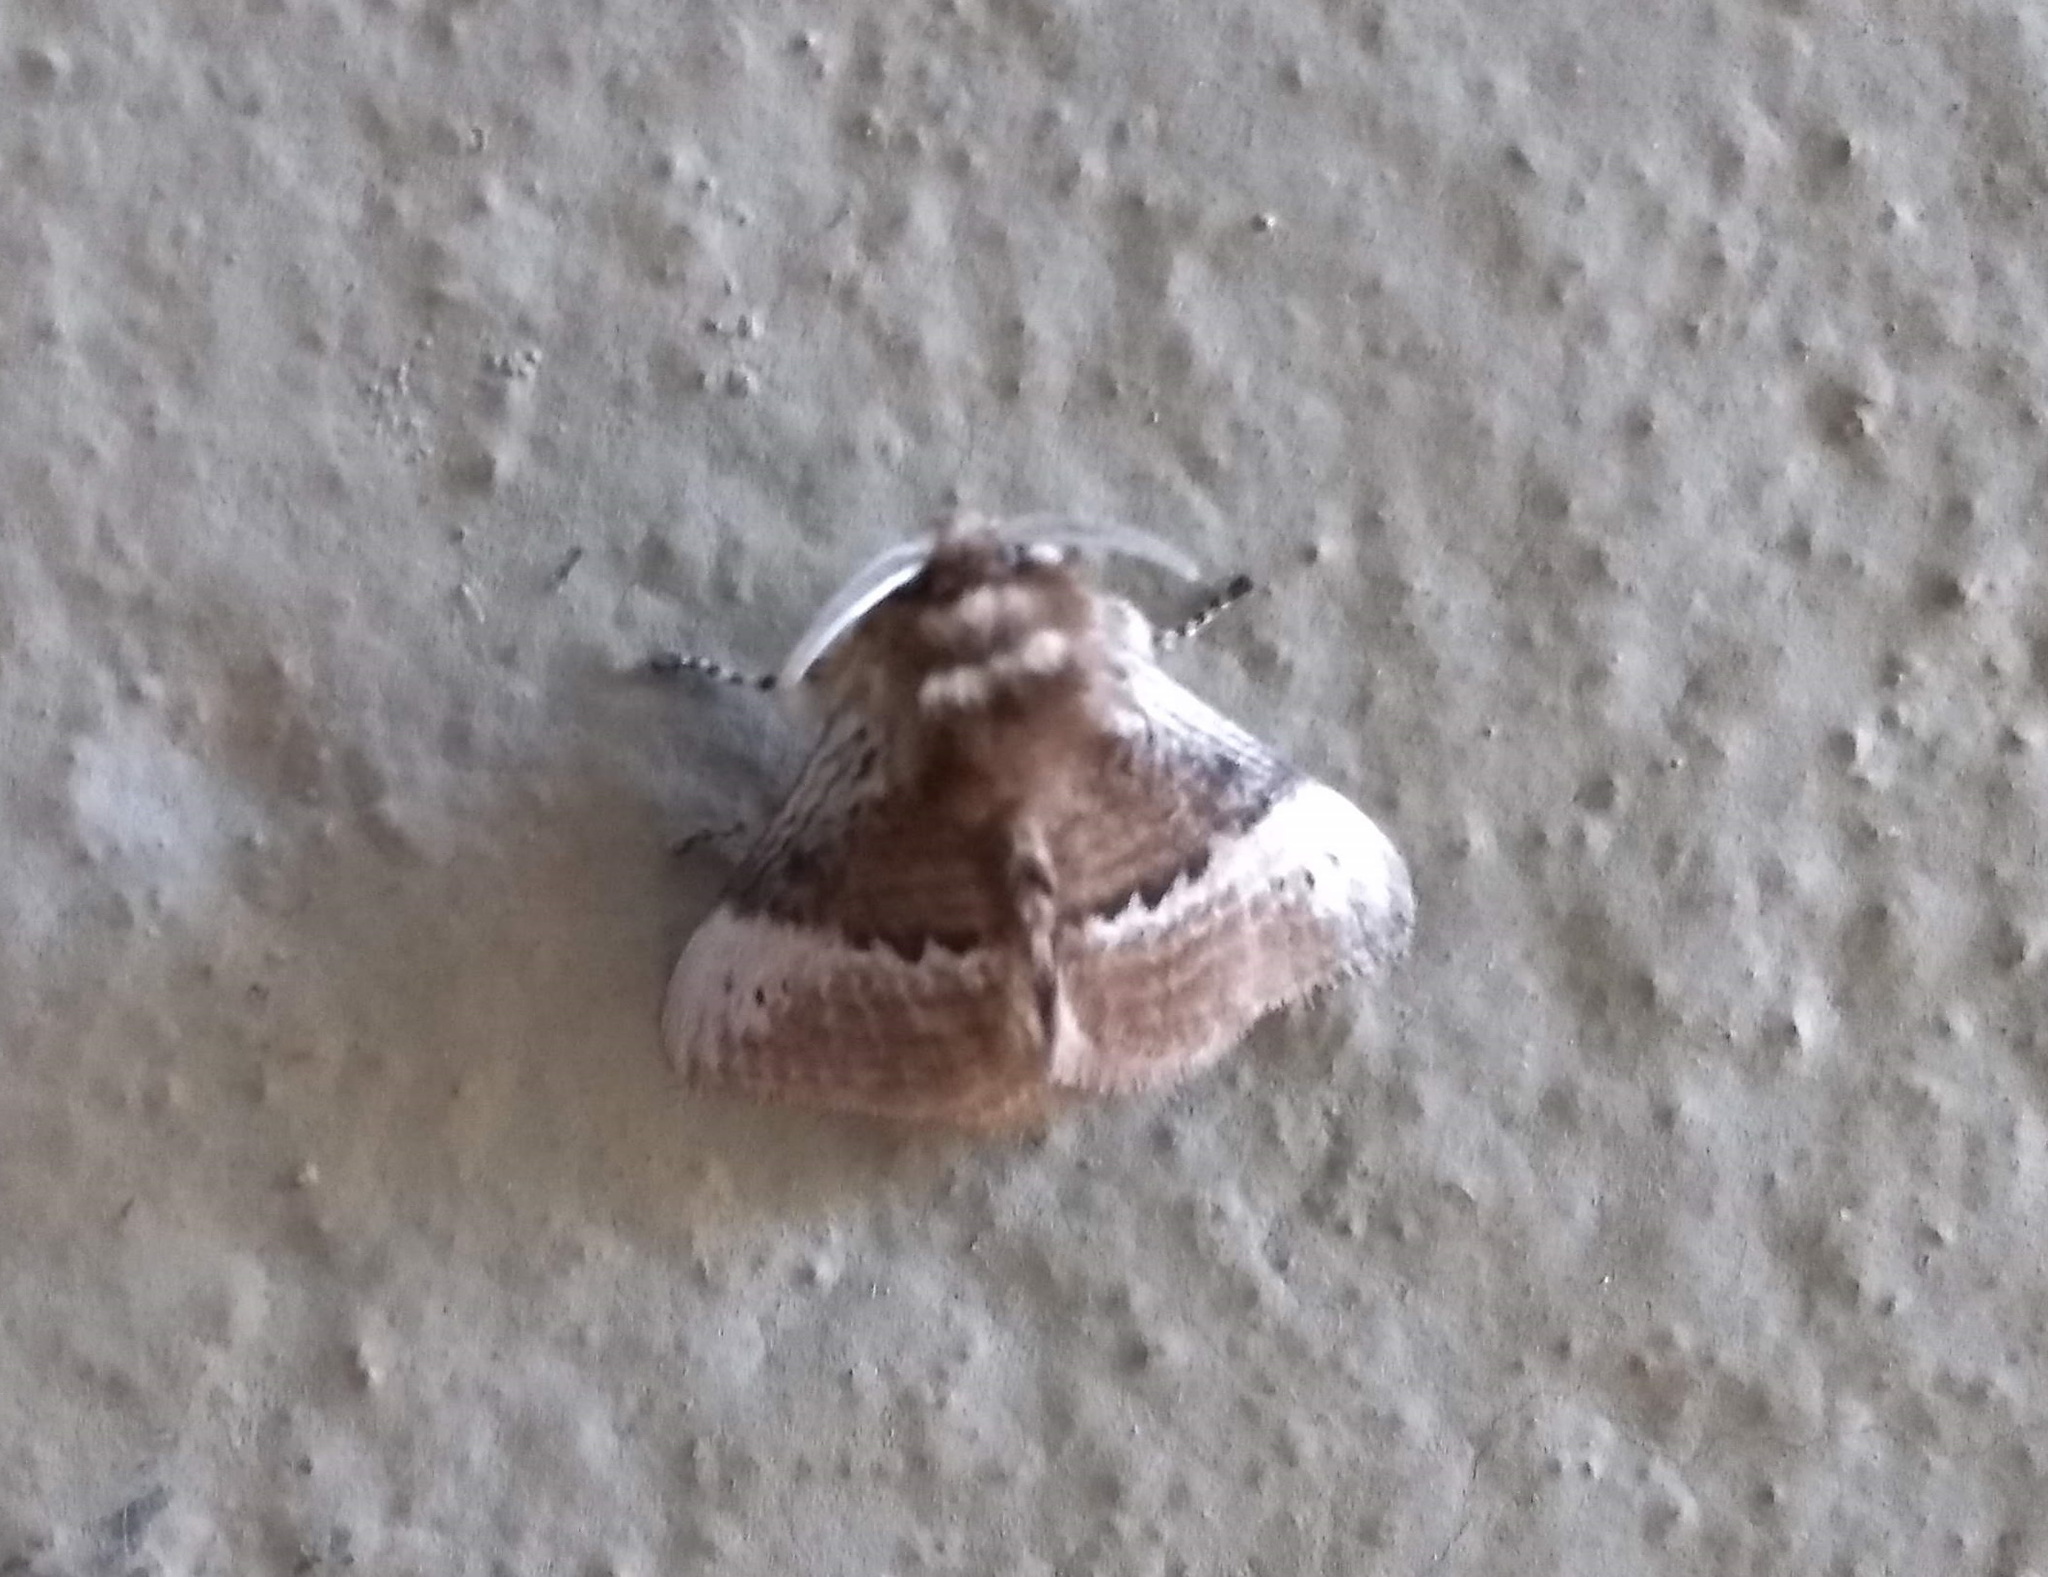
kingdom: Animalia
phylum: Arthropoda
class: Insecta
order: Lepidoptera
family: Megalopygidae
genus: Podalia
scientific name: Podalia walkeri
